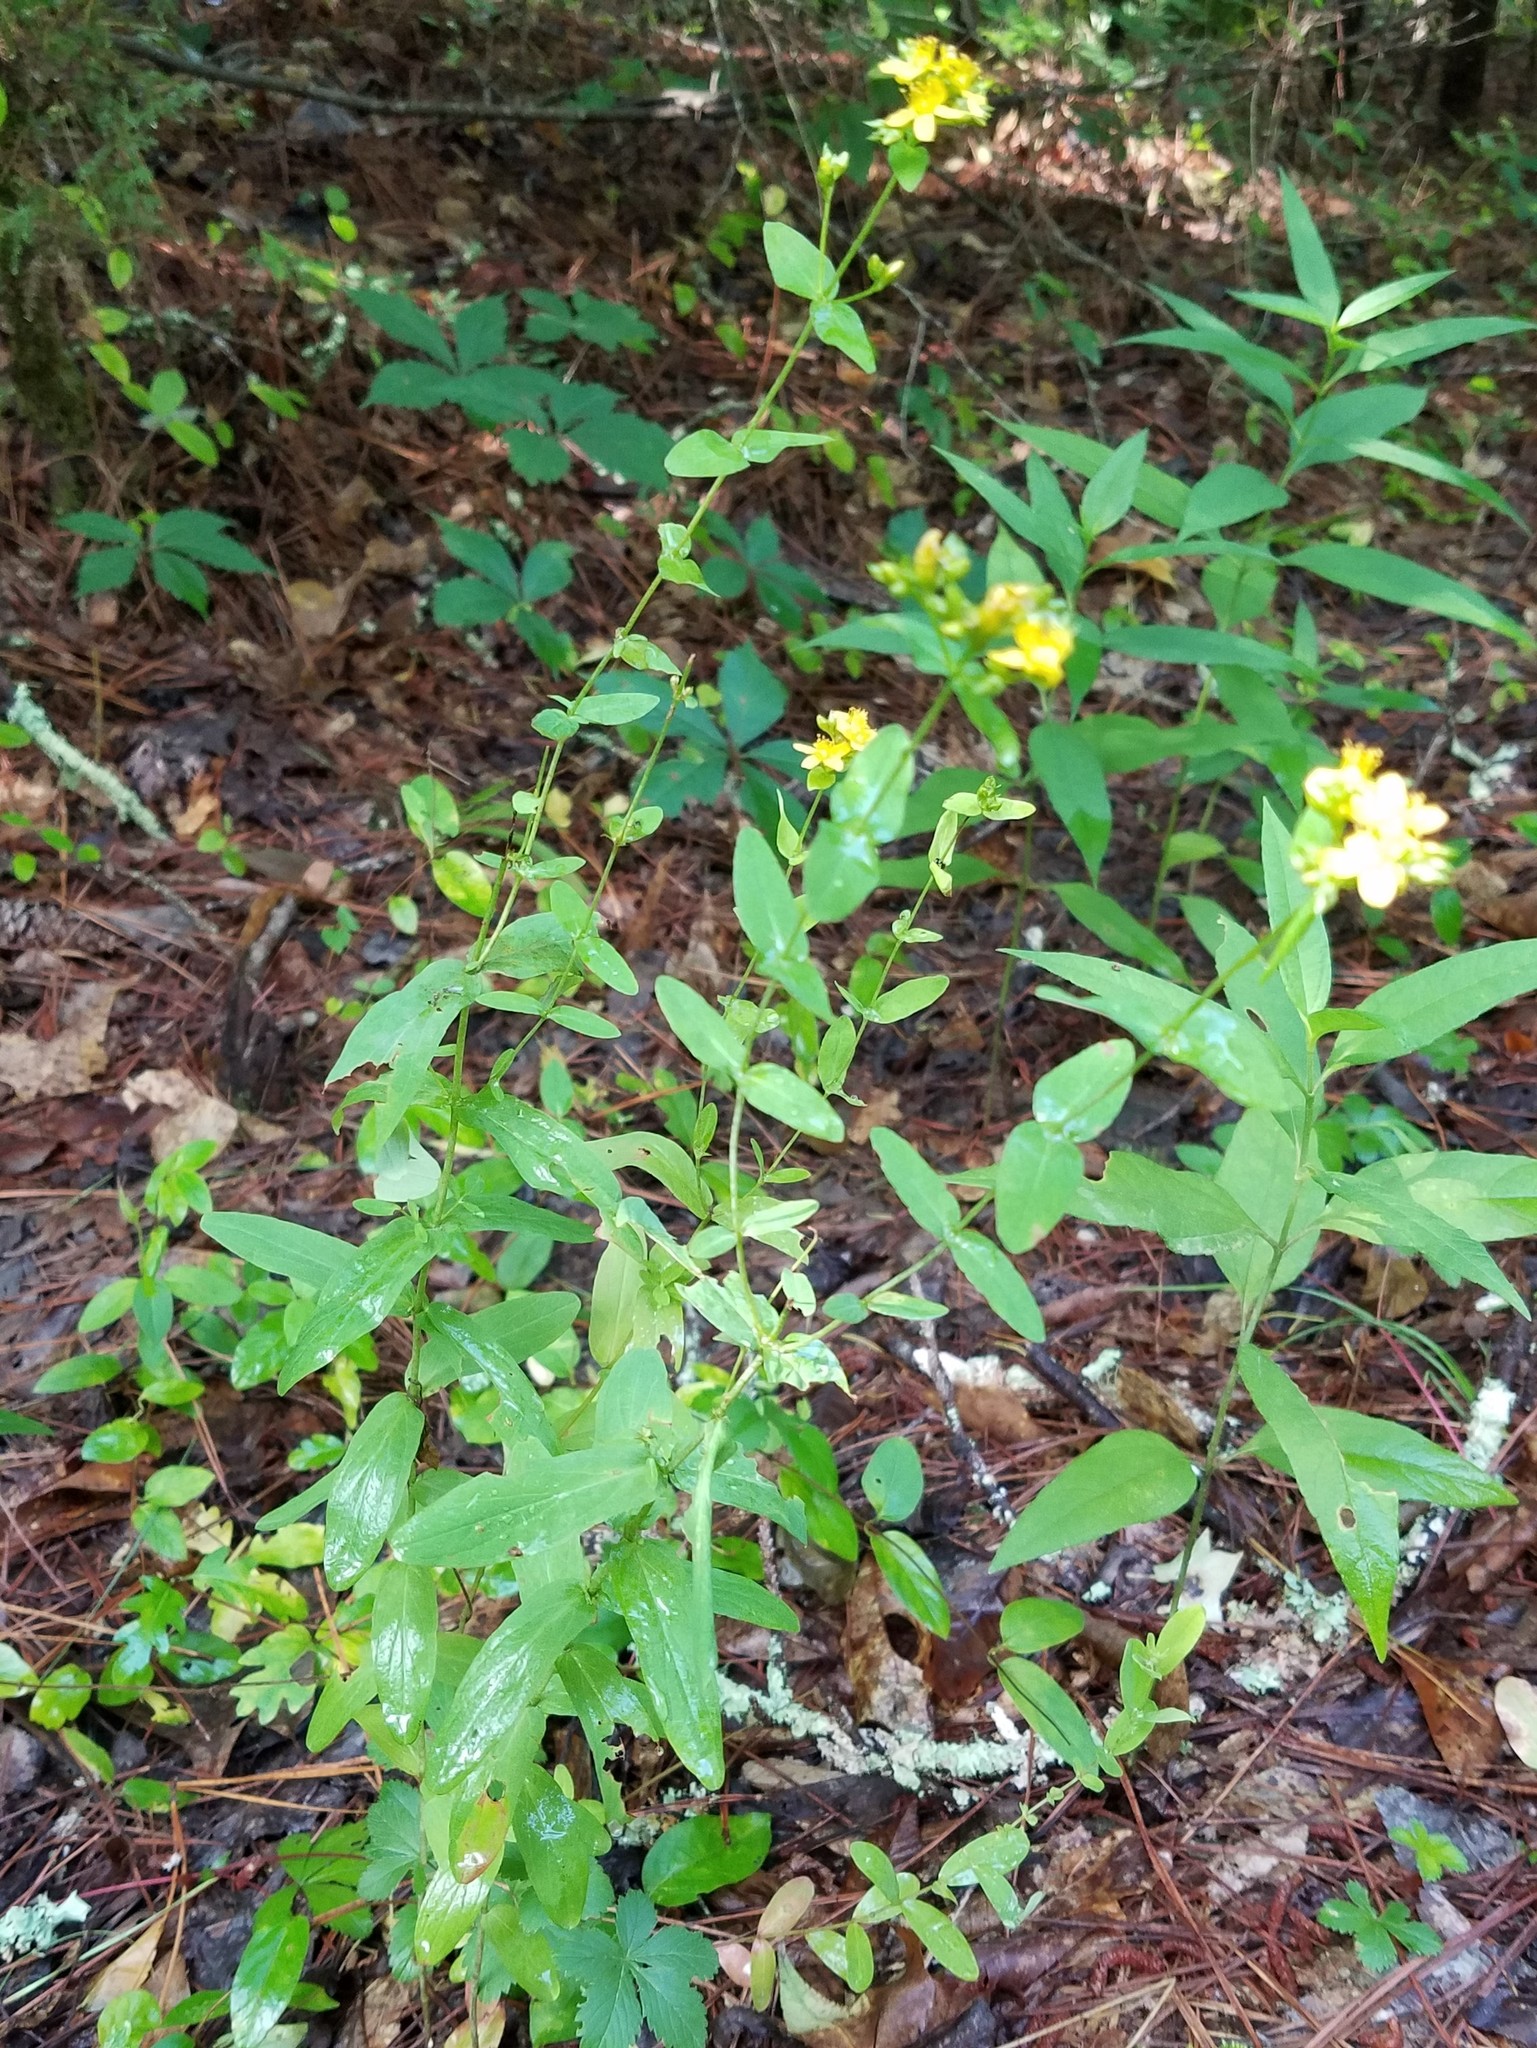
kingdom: Plantae
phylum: Tracheophyta
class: Magnoliopsida
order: Malpighiales
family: Hypericaceae
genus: Hypericum
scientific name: Hypericum punctatum
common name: Spotted st. john's-wort
